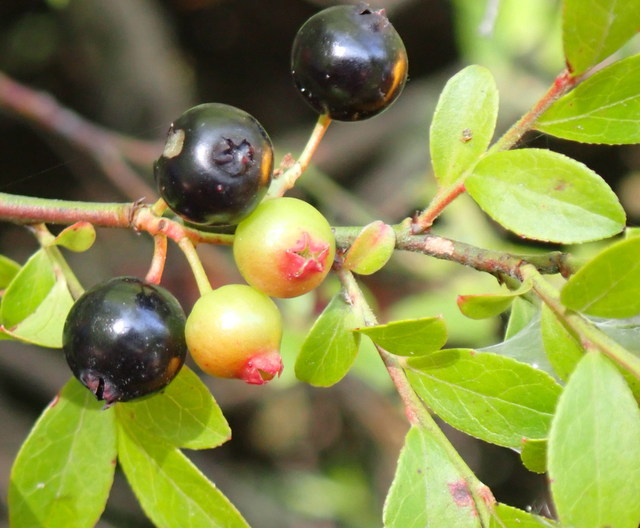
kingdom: Plantae
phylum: Tracheophyta
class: Magnoliopsida
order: Ericales
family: Ericaceae
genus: Vaccinium
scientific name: Vaccinium corymbosum
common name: Blueberry
